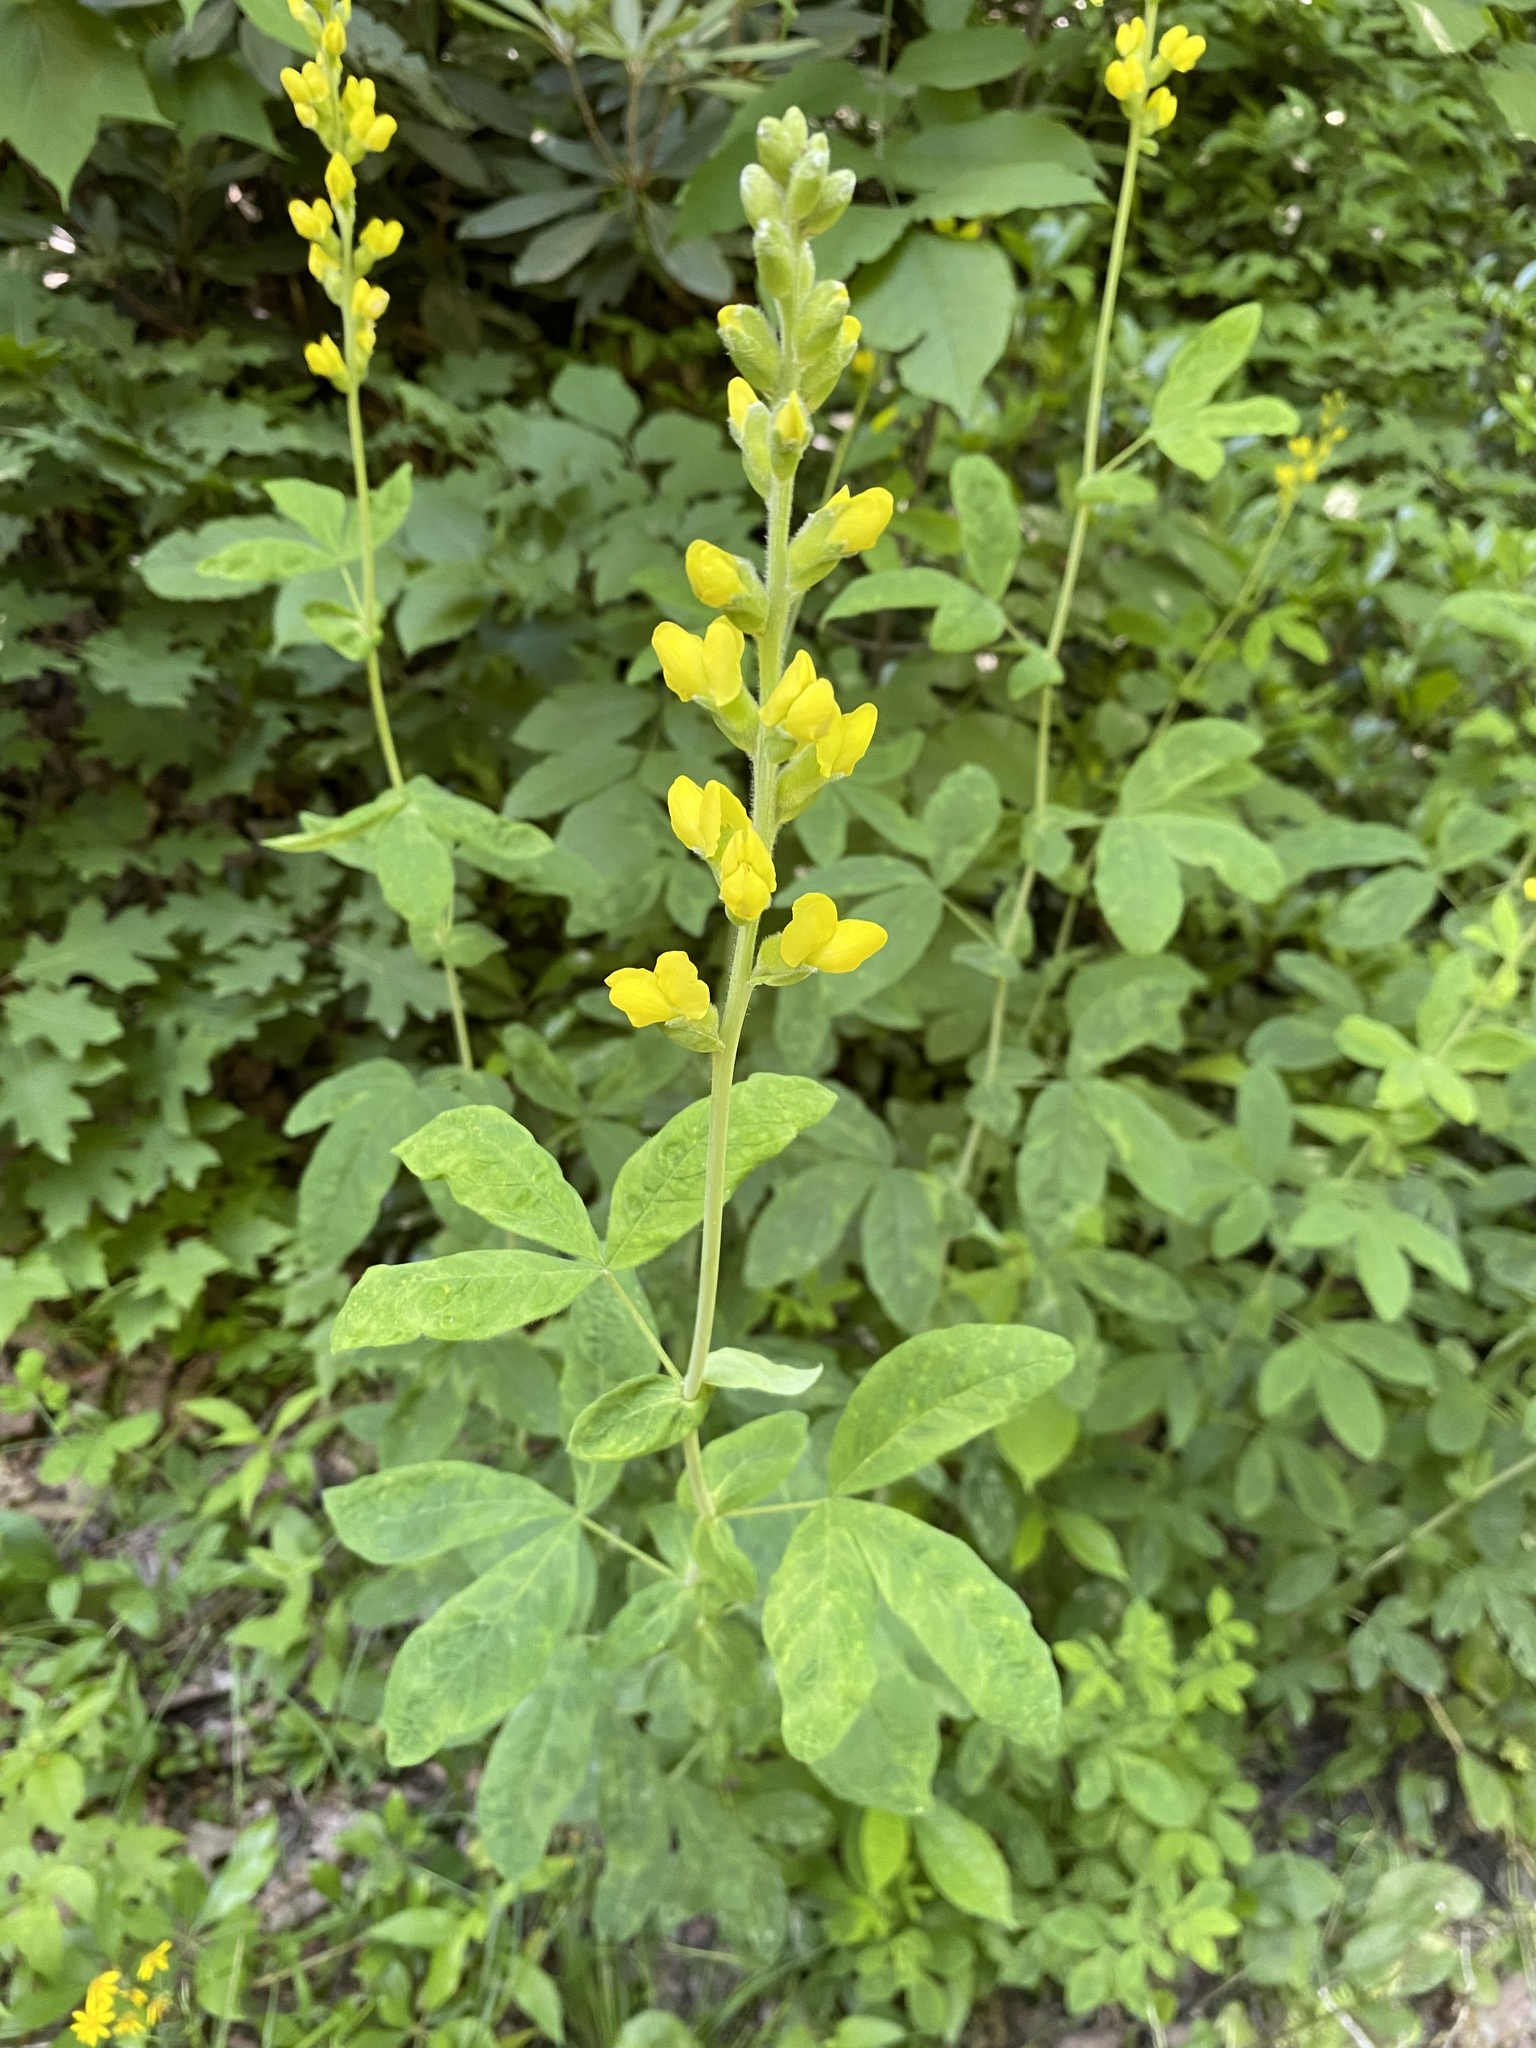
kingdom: Plantae
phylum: Tracheophyta
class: Magnoliopsida
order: Fabales
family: Fabaceae
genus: Thermopsis
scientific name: Thermopsis villosa
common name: Carolina-lupin
